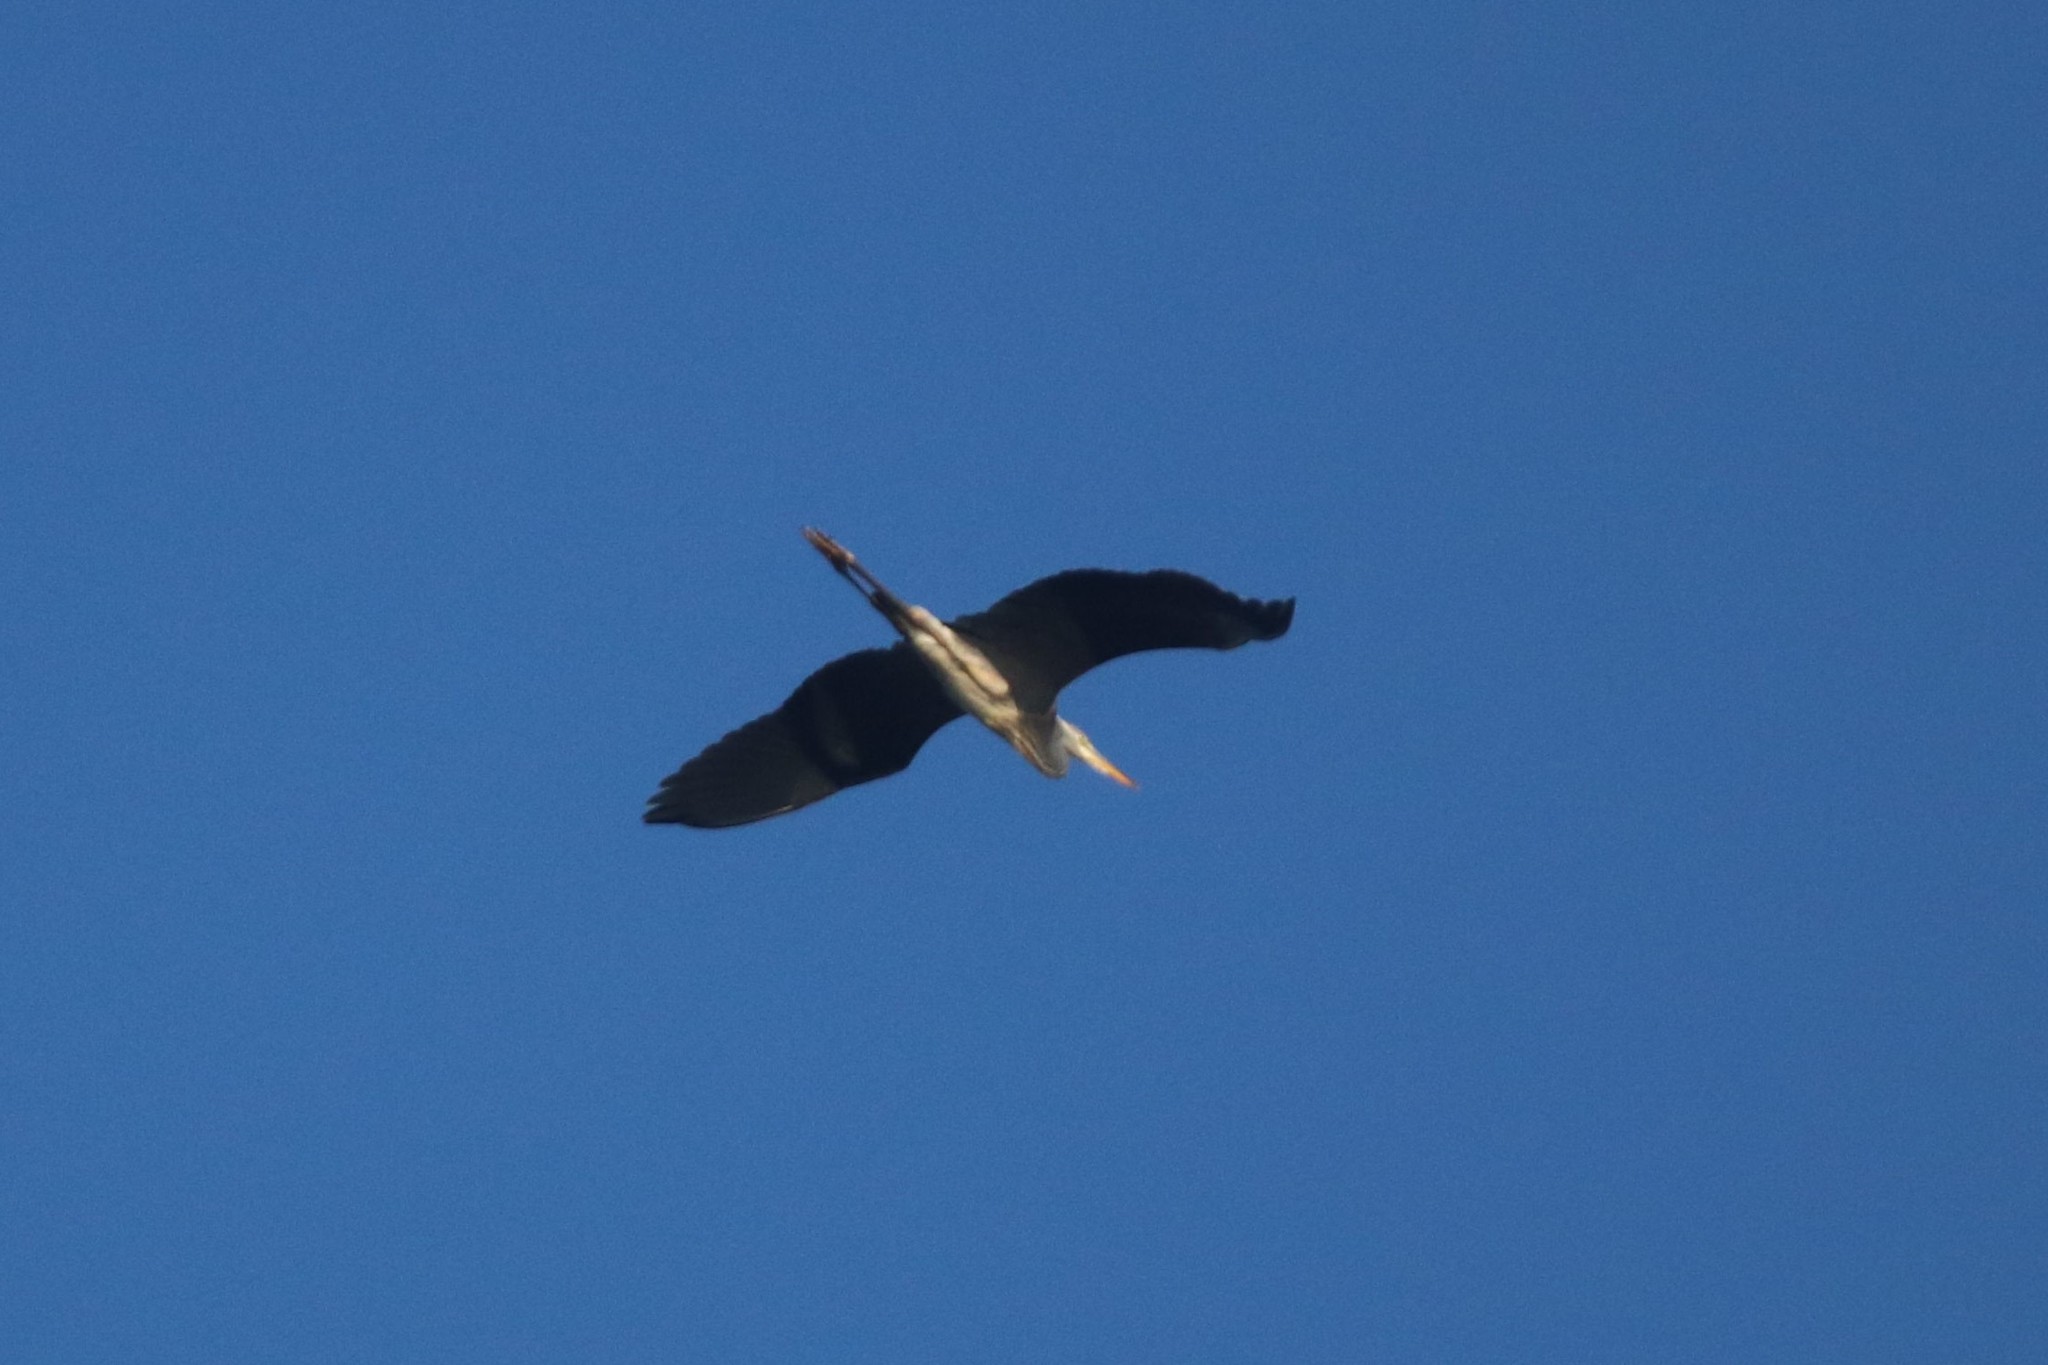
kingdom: Animalia
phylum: Chordata
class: Aves
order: Pelecaniformes
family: Ardeidae
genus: Ardea
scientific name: Ardea cinerea
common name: Grey heron
